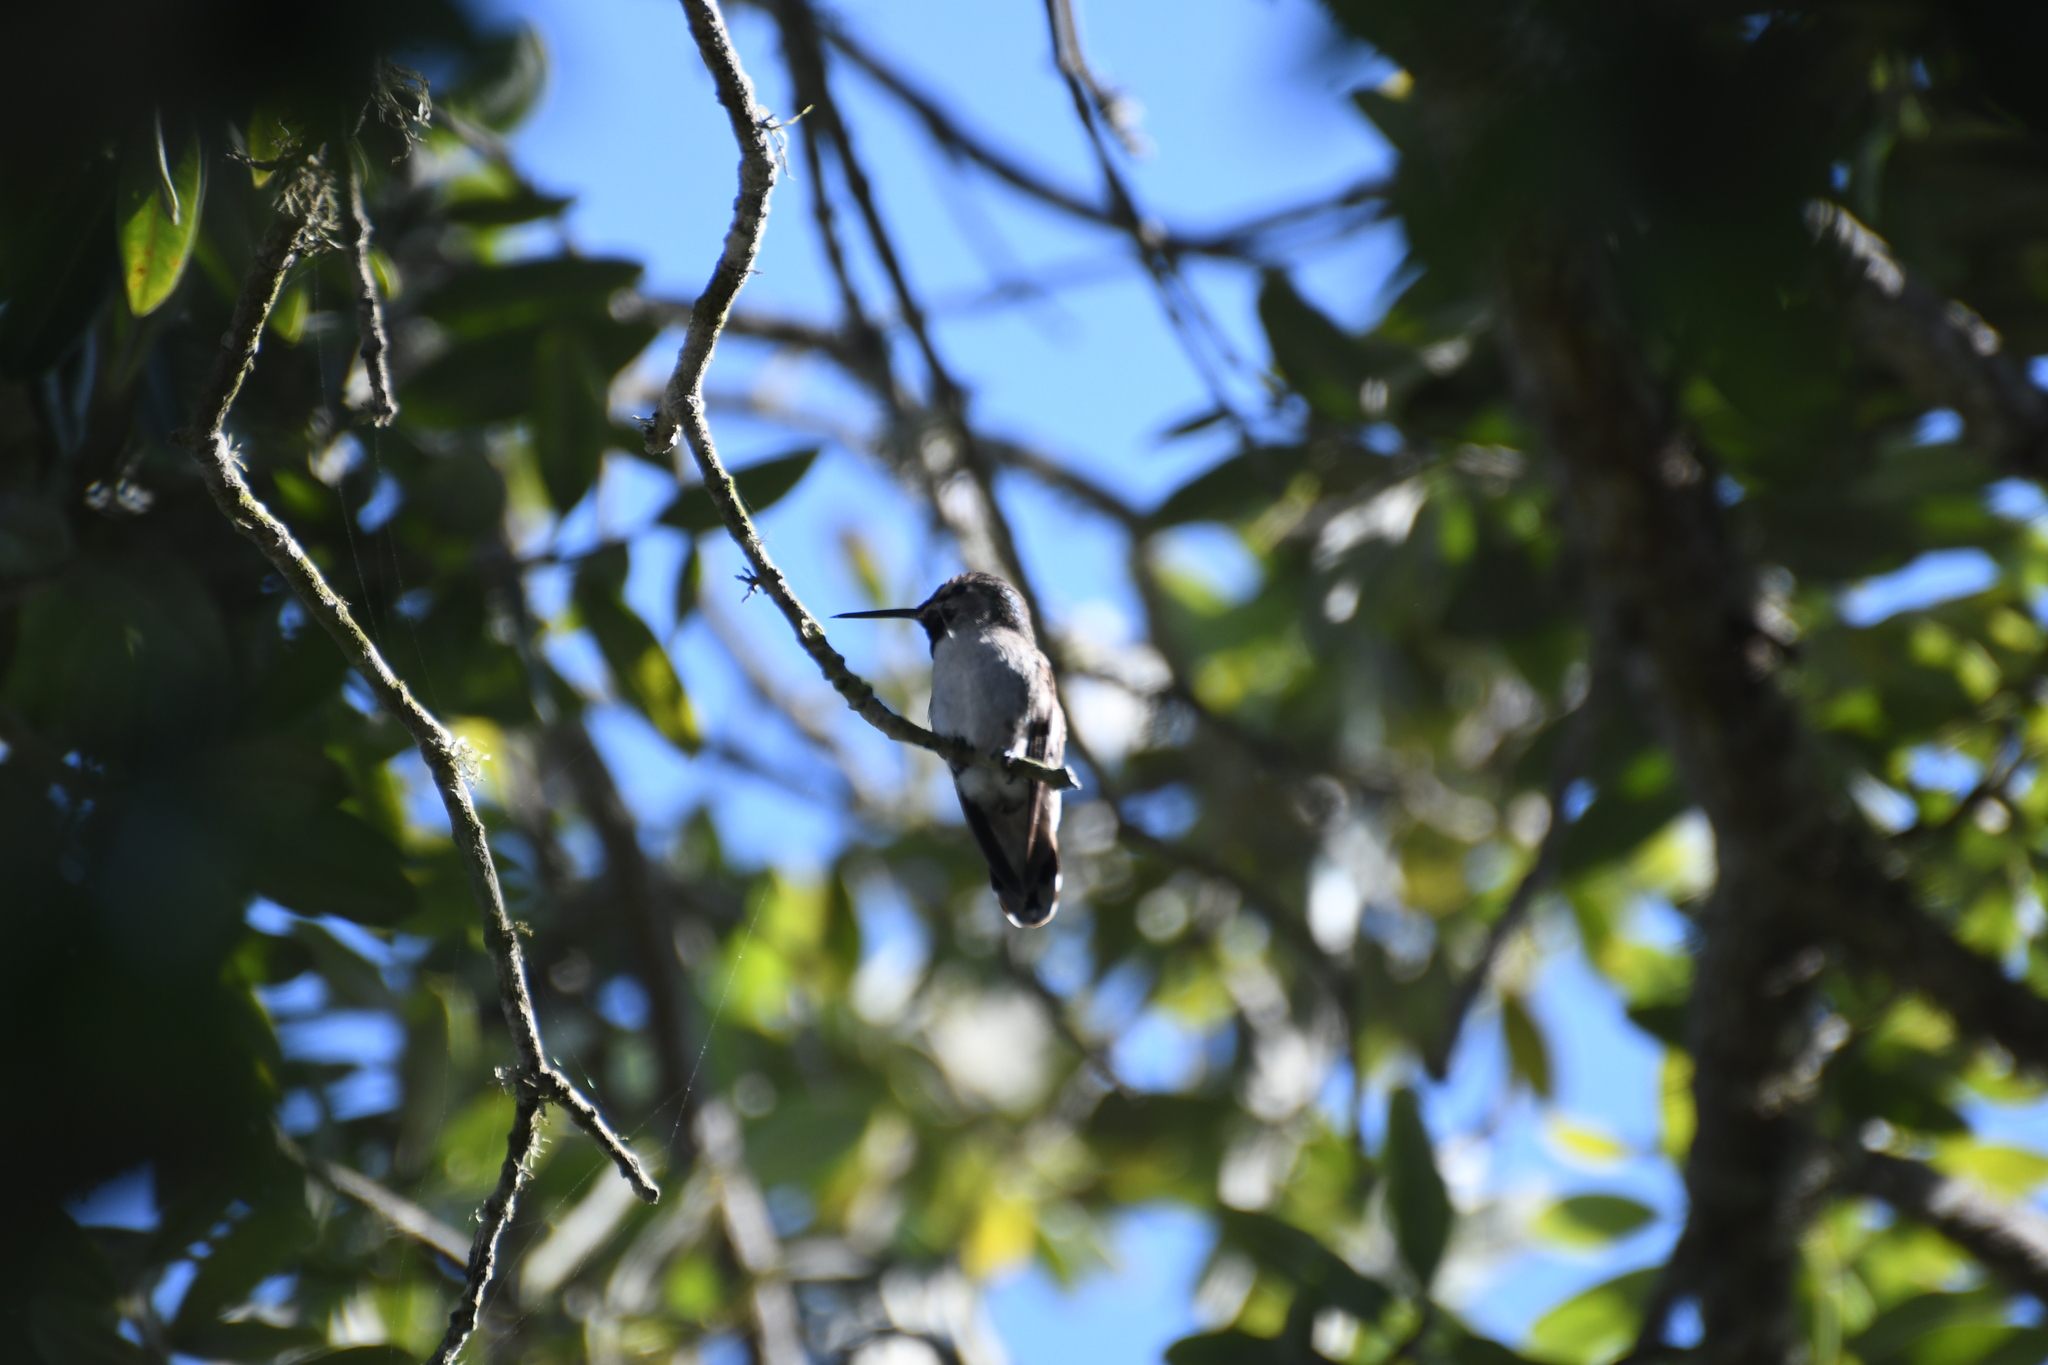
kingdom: Animalia
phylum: Chordata
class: Aves
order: Apodiformes
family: Trochilidae
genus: Calypte
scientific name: Calypte anna
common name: Anna's hummingbird
